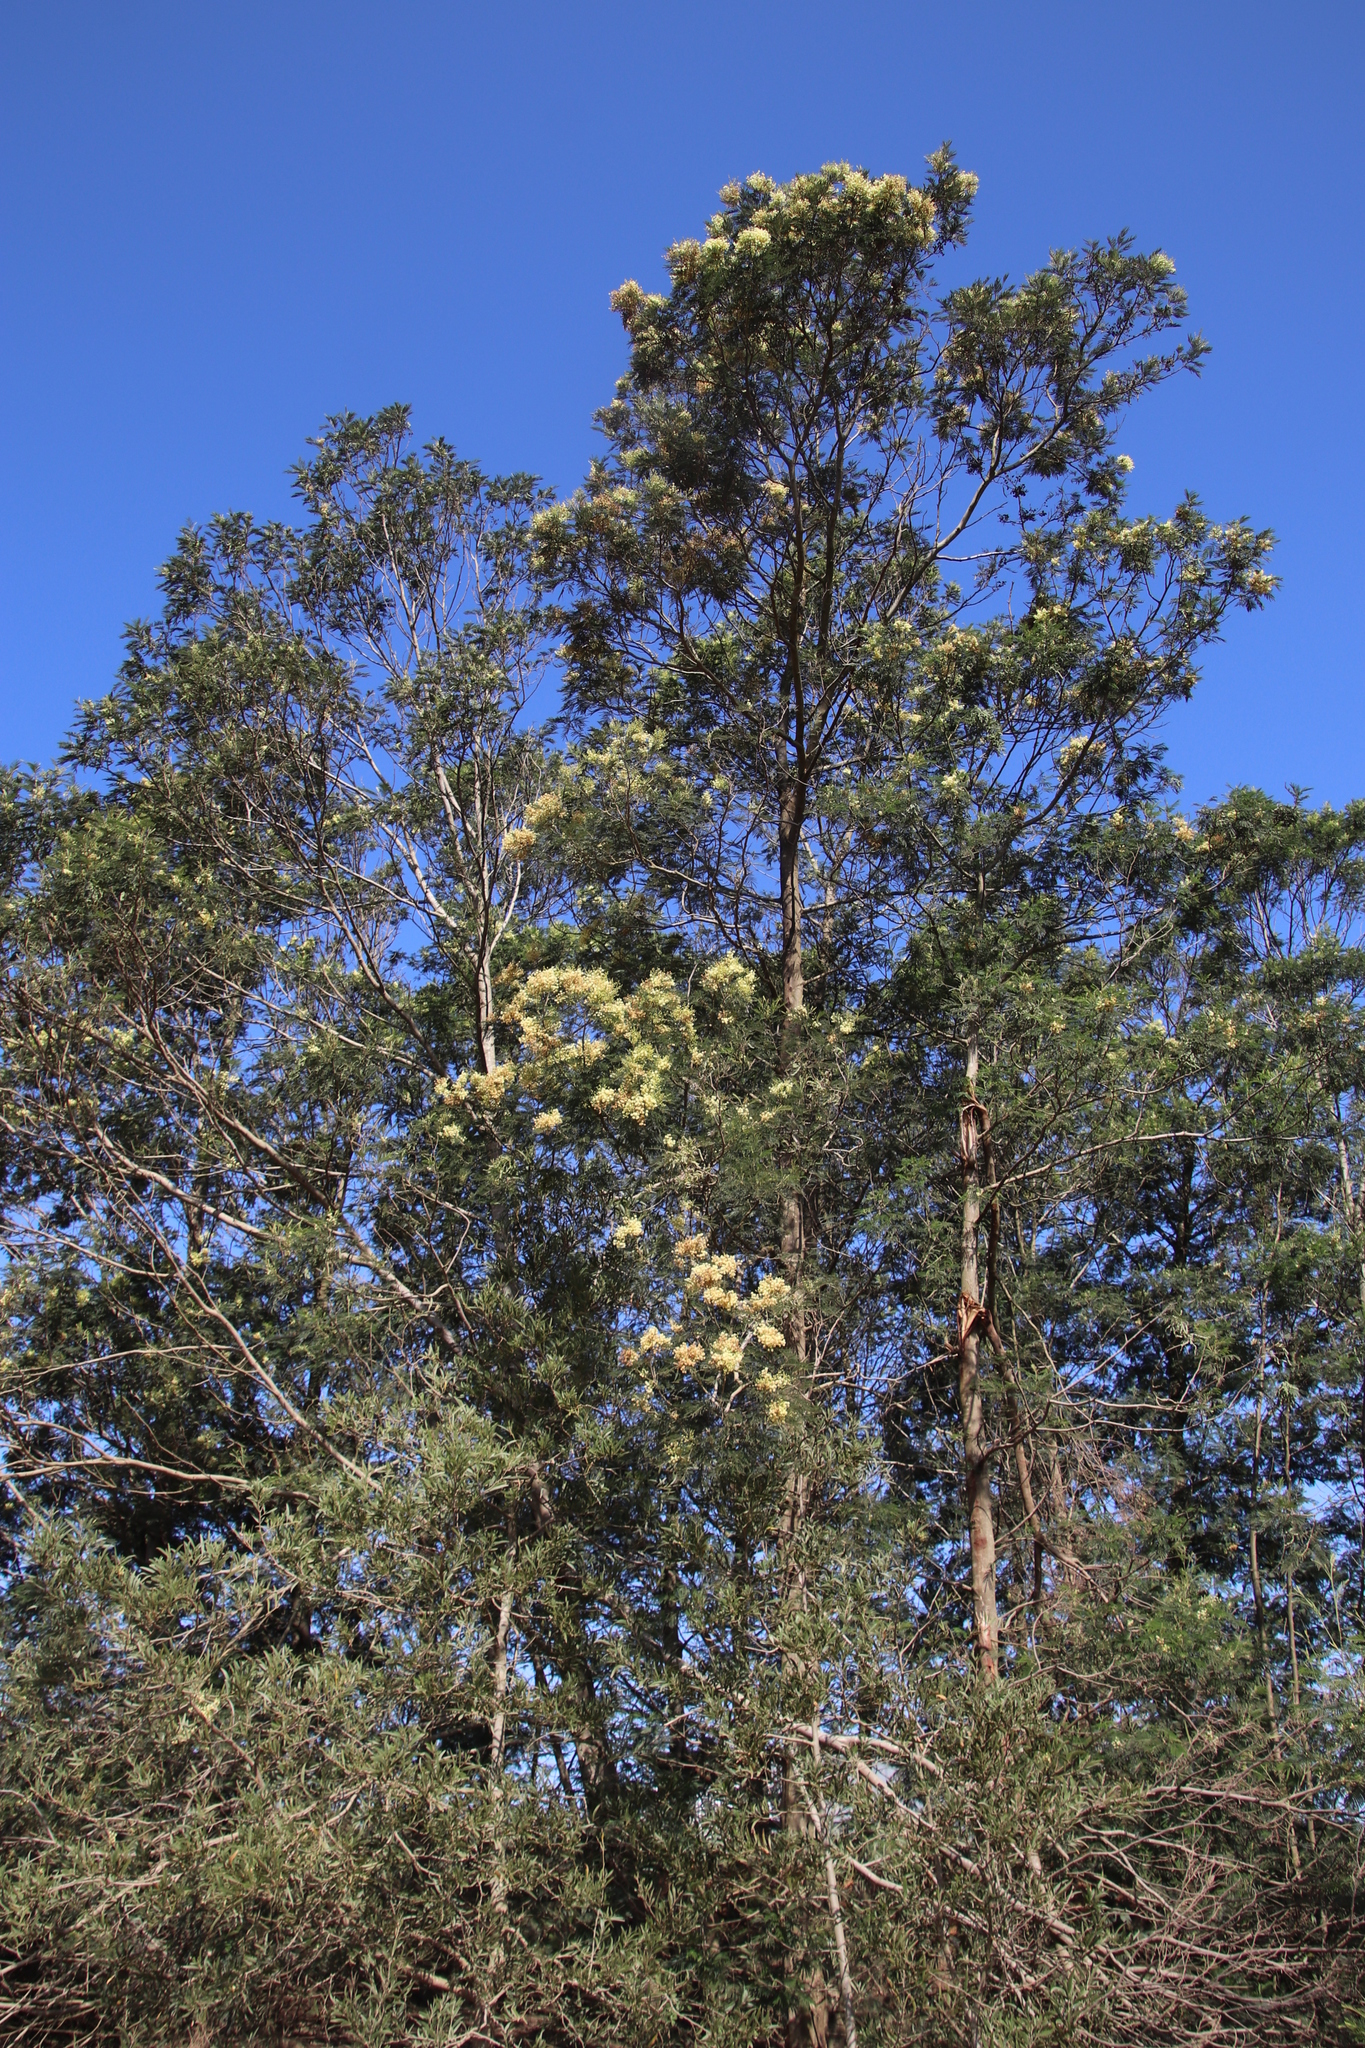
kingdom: Plantae
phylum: Tracheophyta
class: Magnoliopsida
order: Fabales
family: Fabaceae
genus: Acacia
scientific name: Acacia mearnsii
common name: Black wattle
